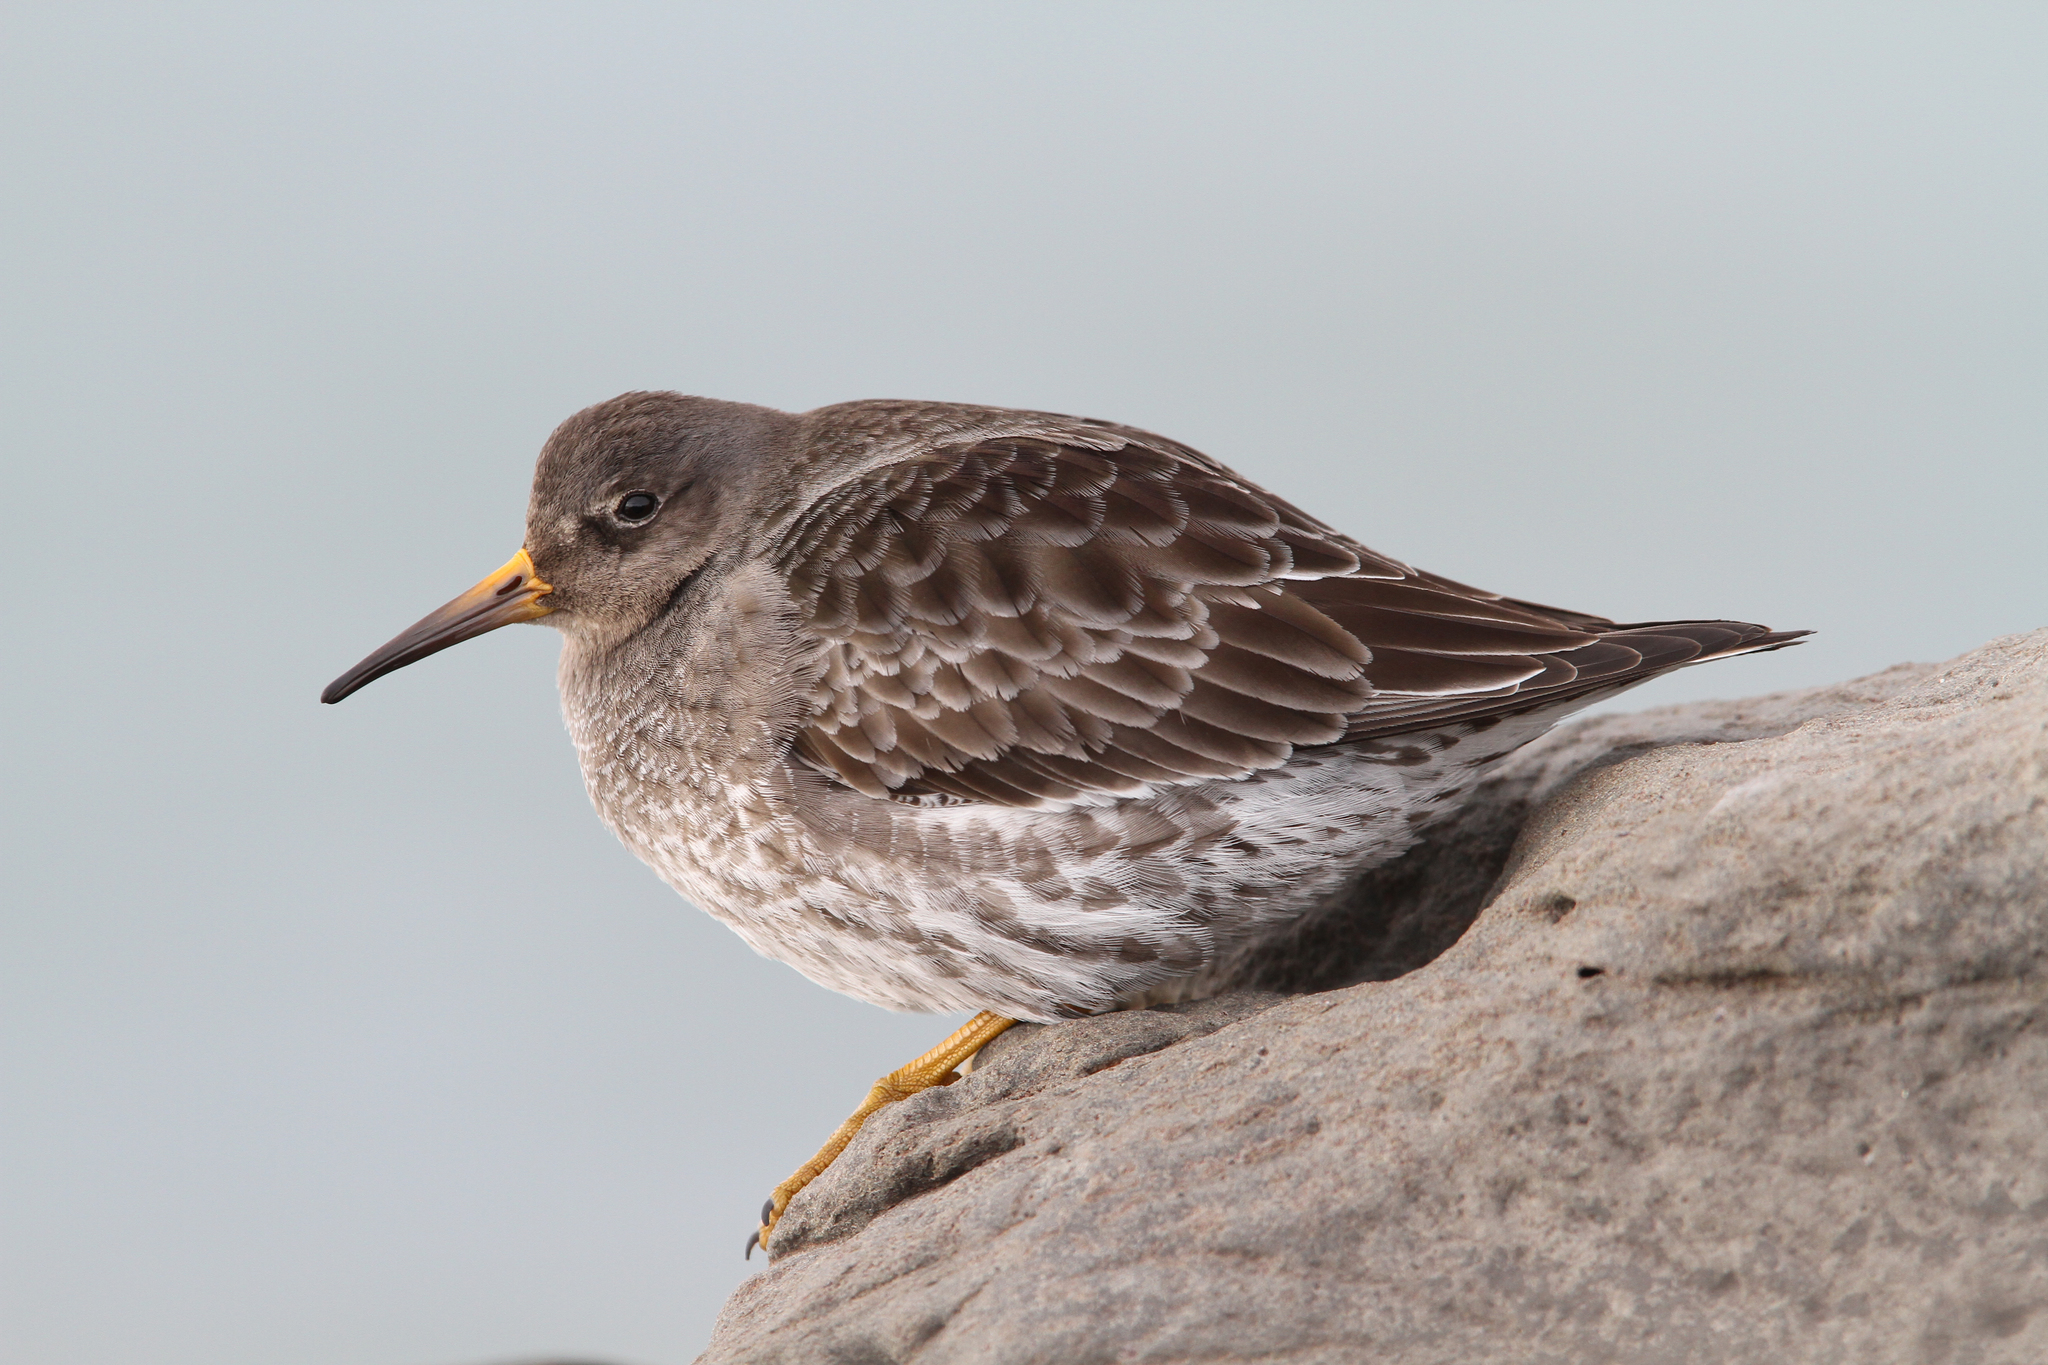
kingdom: Animalia
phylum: Chordata
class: Aves
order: Charadriiformes
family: Scolopacidae
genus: Calidris
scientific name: Calidris maritima
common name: Purple sandpiper
